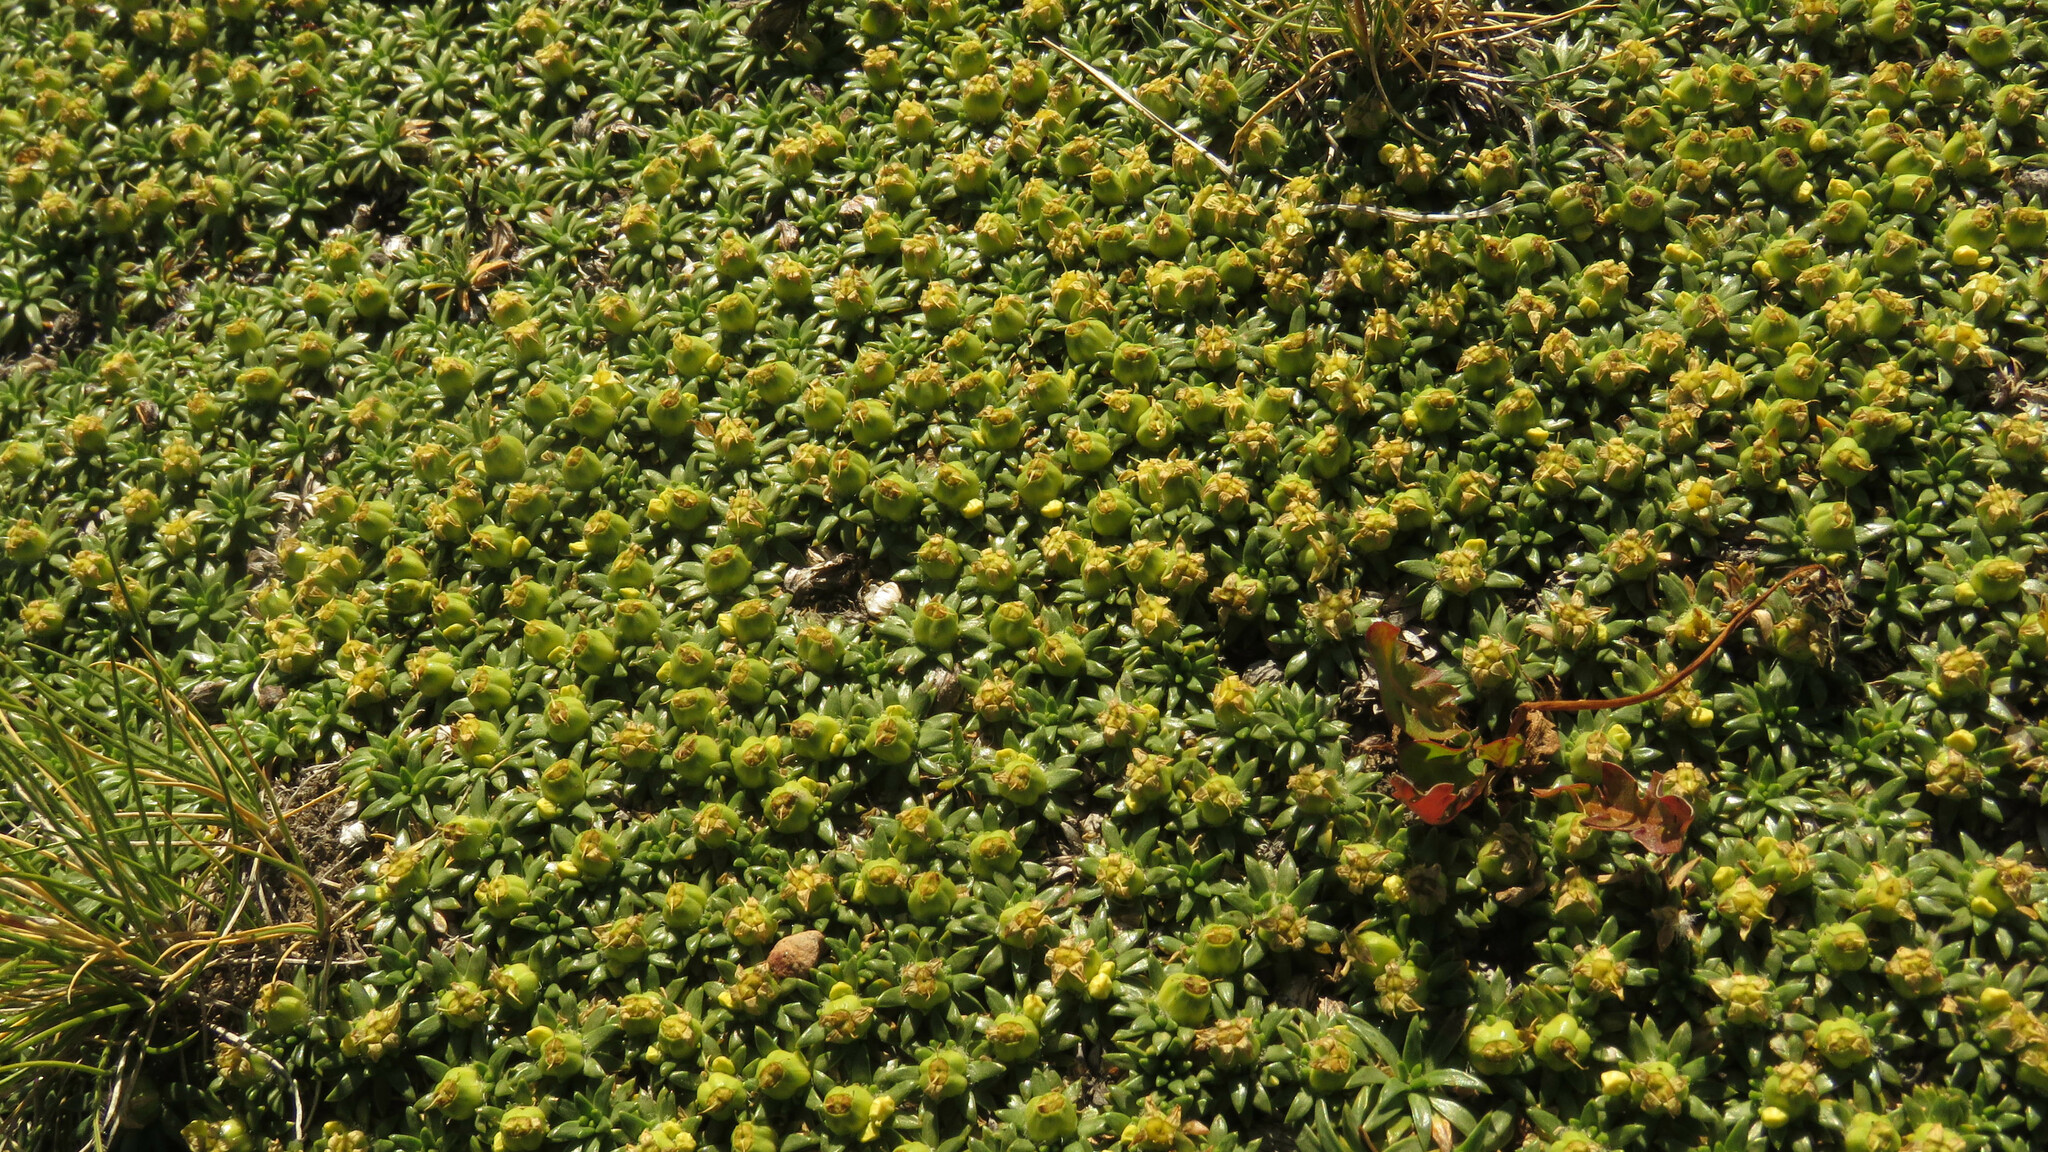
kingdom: Plantae
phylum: Tracheophyta
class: Magnoliopsida
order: Apiales
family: Apiaceae
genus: Azorella
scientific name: Azorella monantha
